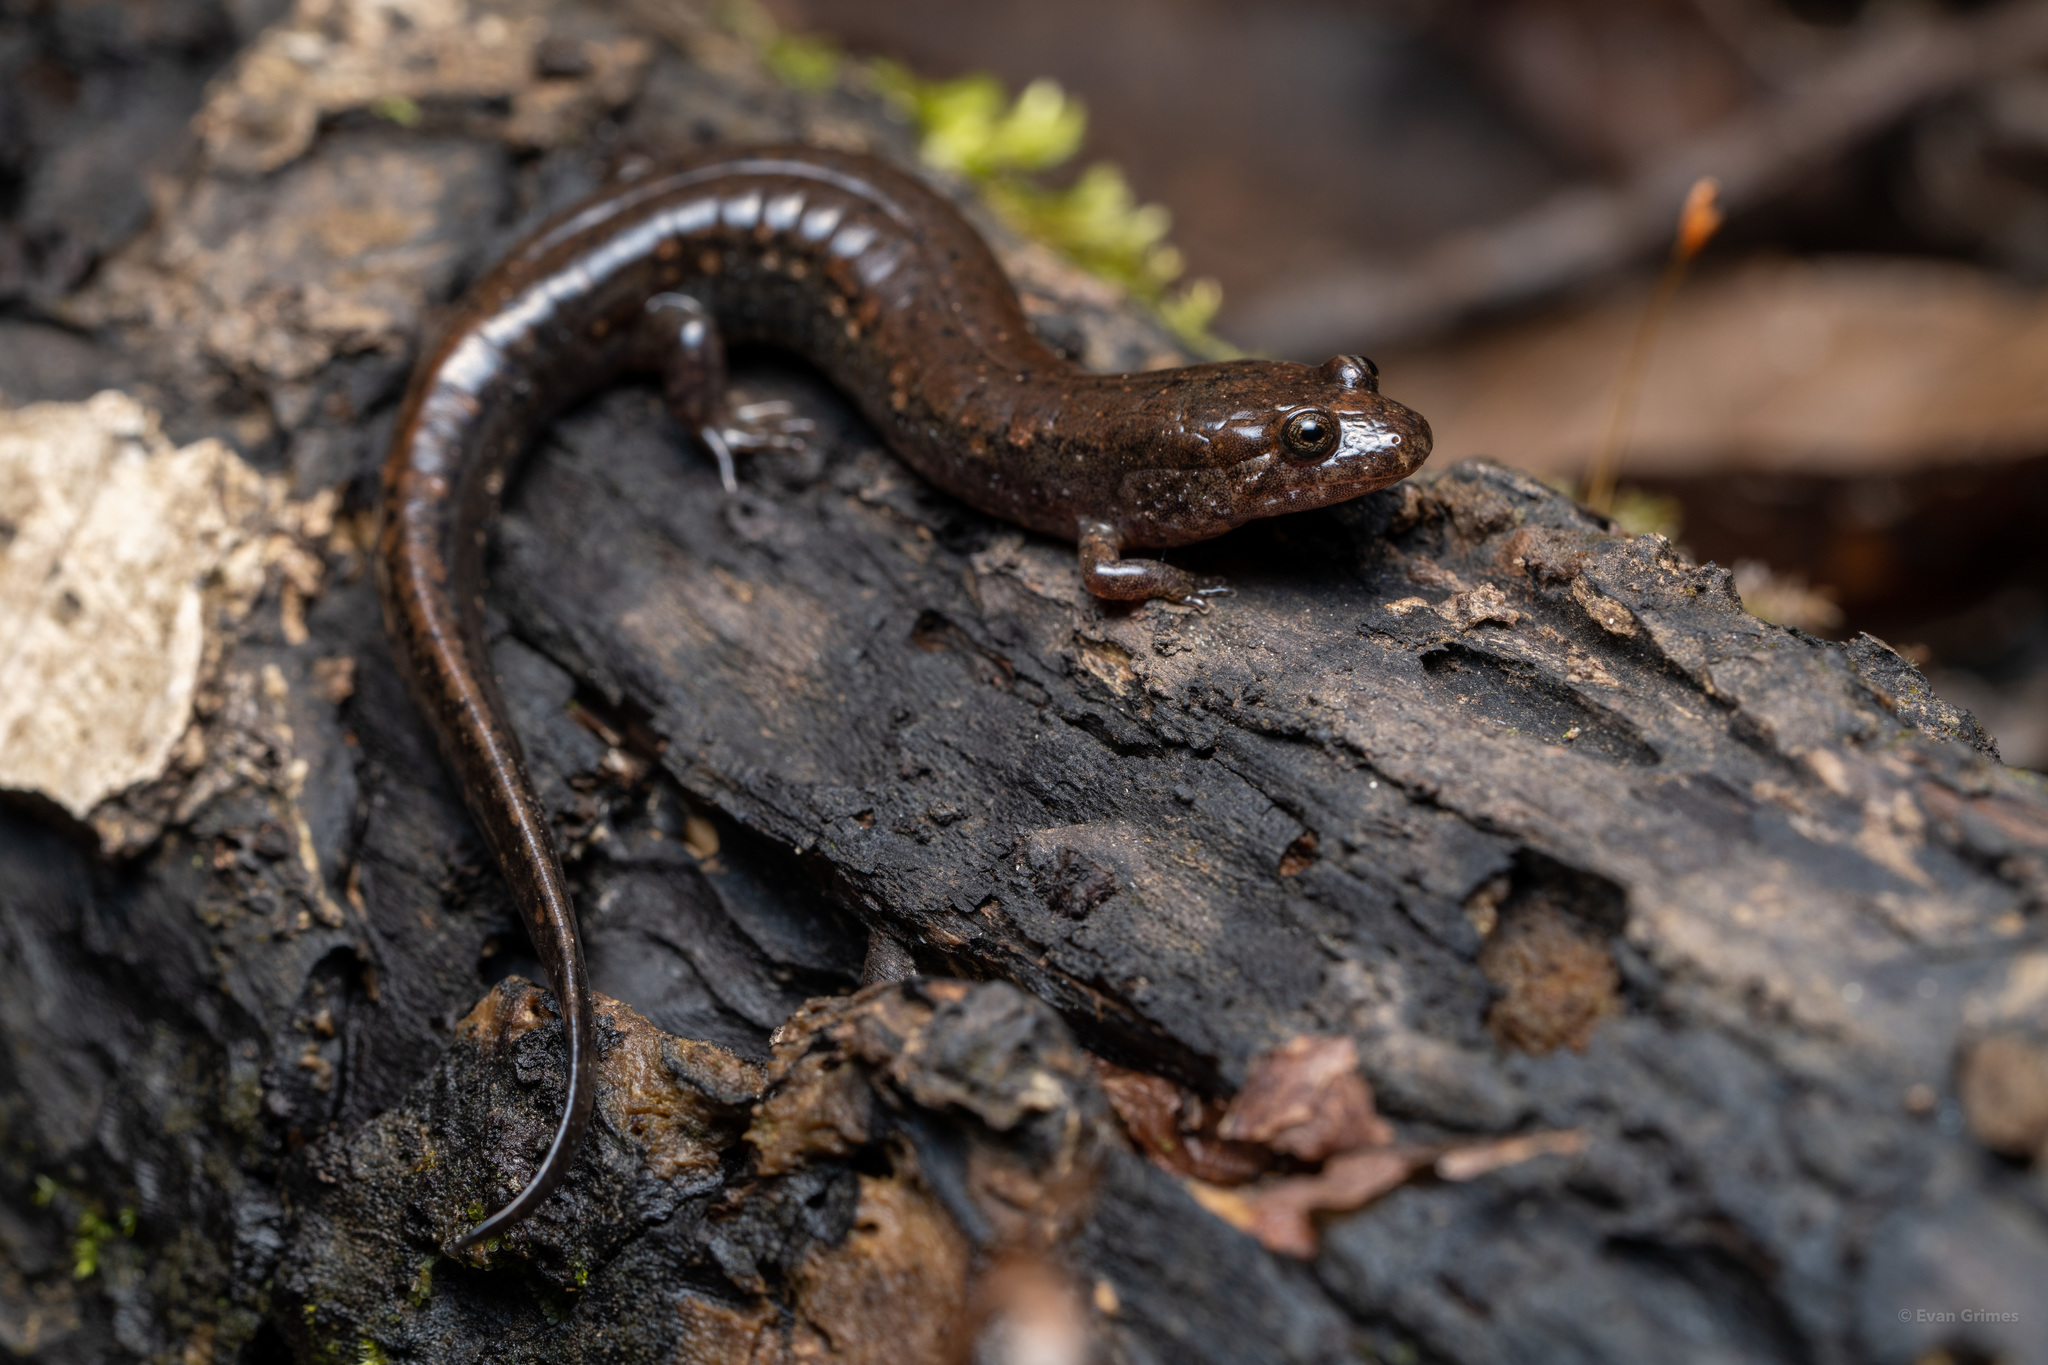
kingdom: Animalia
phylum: Chordata
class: Amphibia
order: Caudata
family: Plethodontidae
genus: Desmognathus
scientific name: Desmognathus valentinei
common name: Valentine's southern dusky salamander
